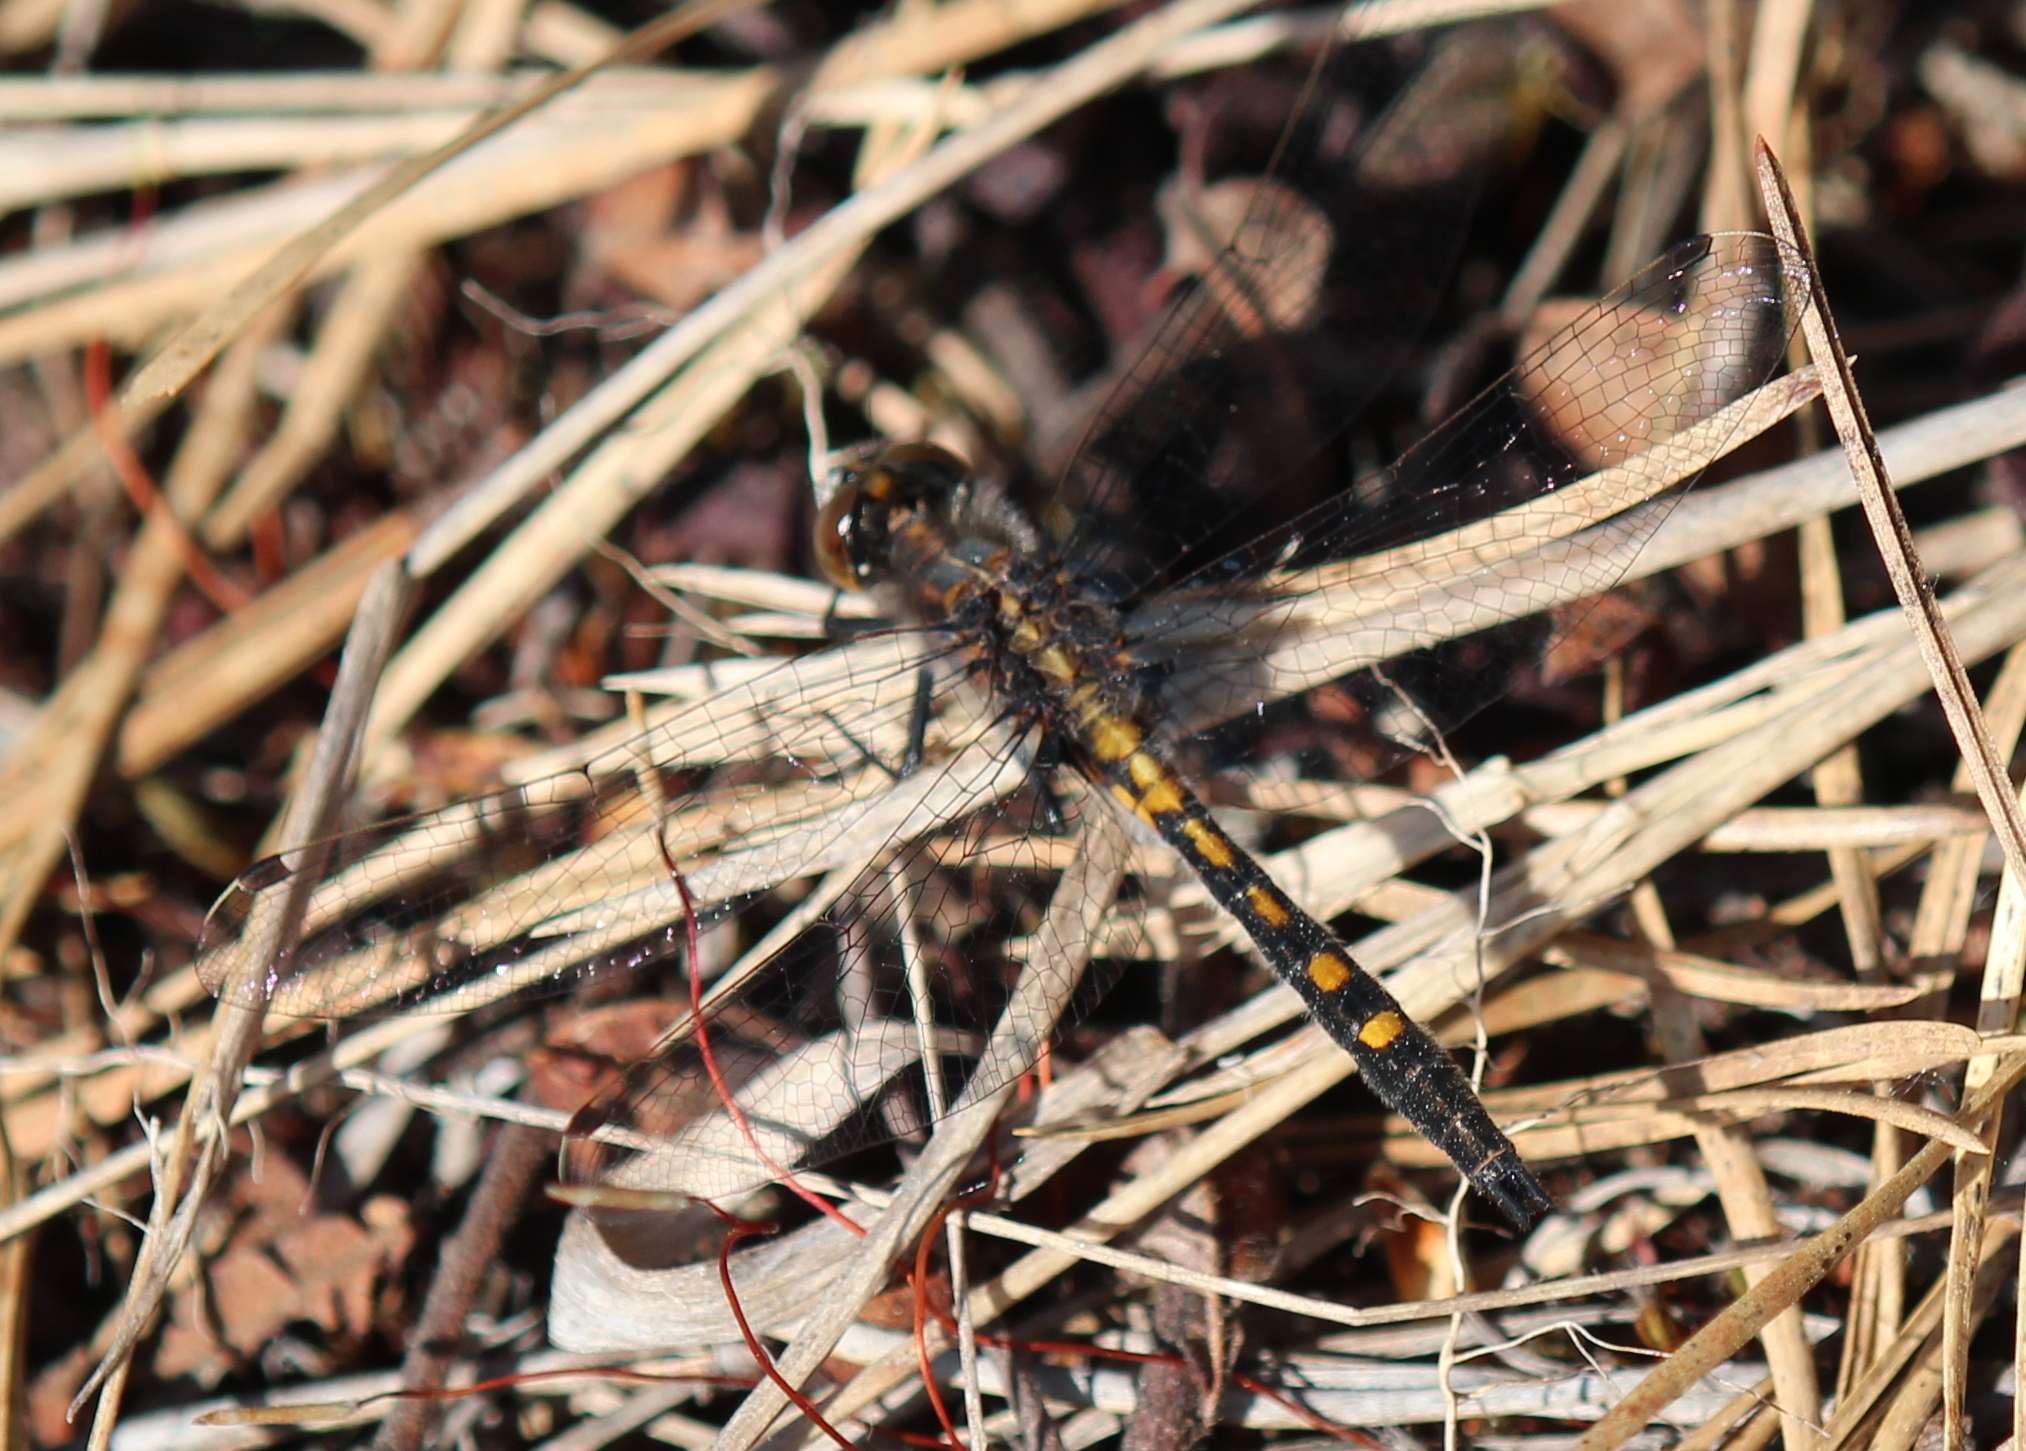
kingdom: Animalia
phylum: Arthropoda
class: Insecta
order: Odonata
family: Libellulidae
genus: Leucorrhinia
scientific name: Leucorrhinia intacta
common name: Dot-tailed whiteface
